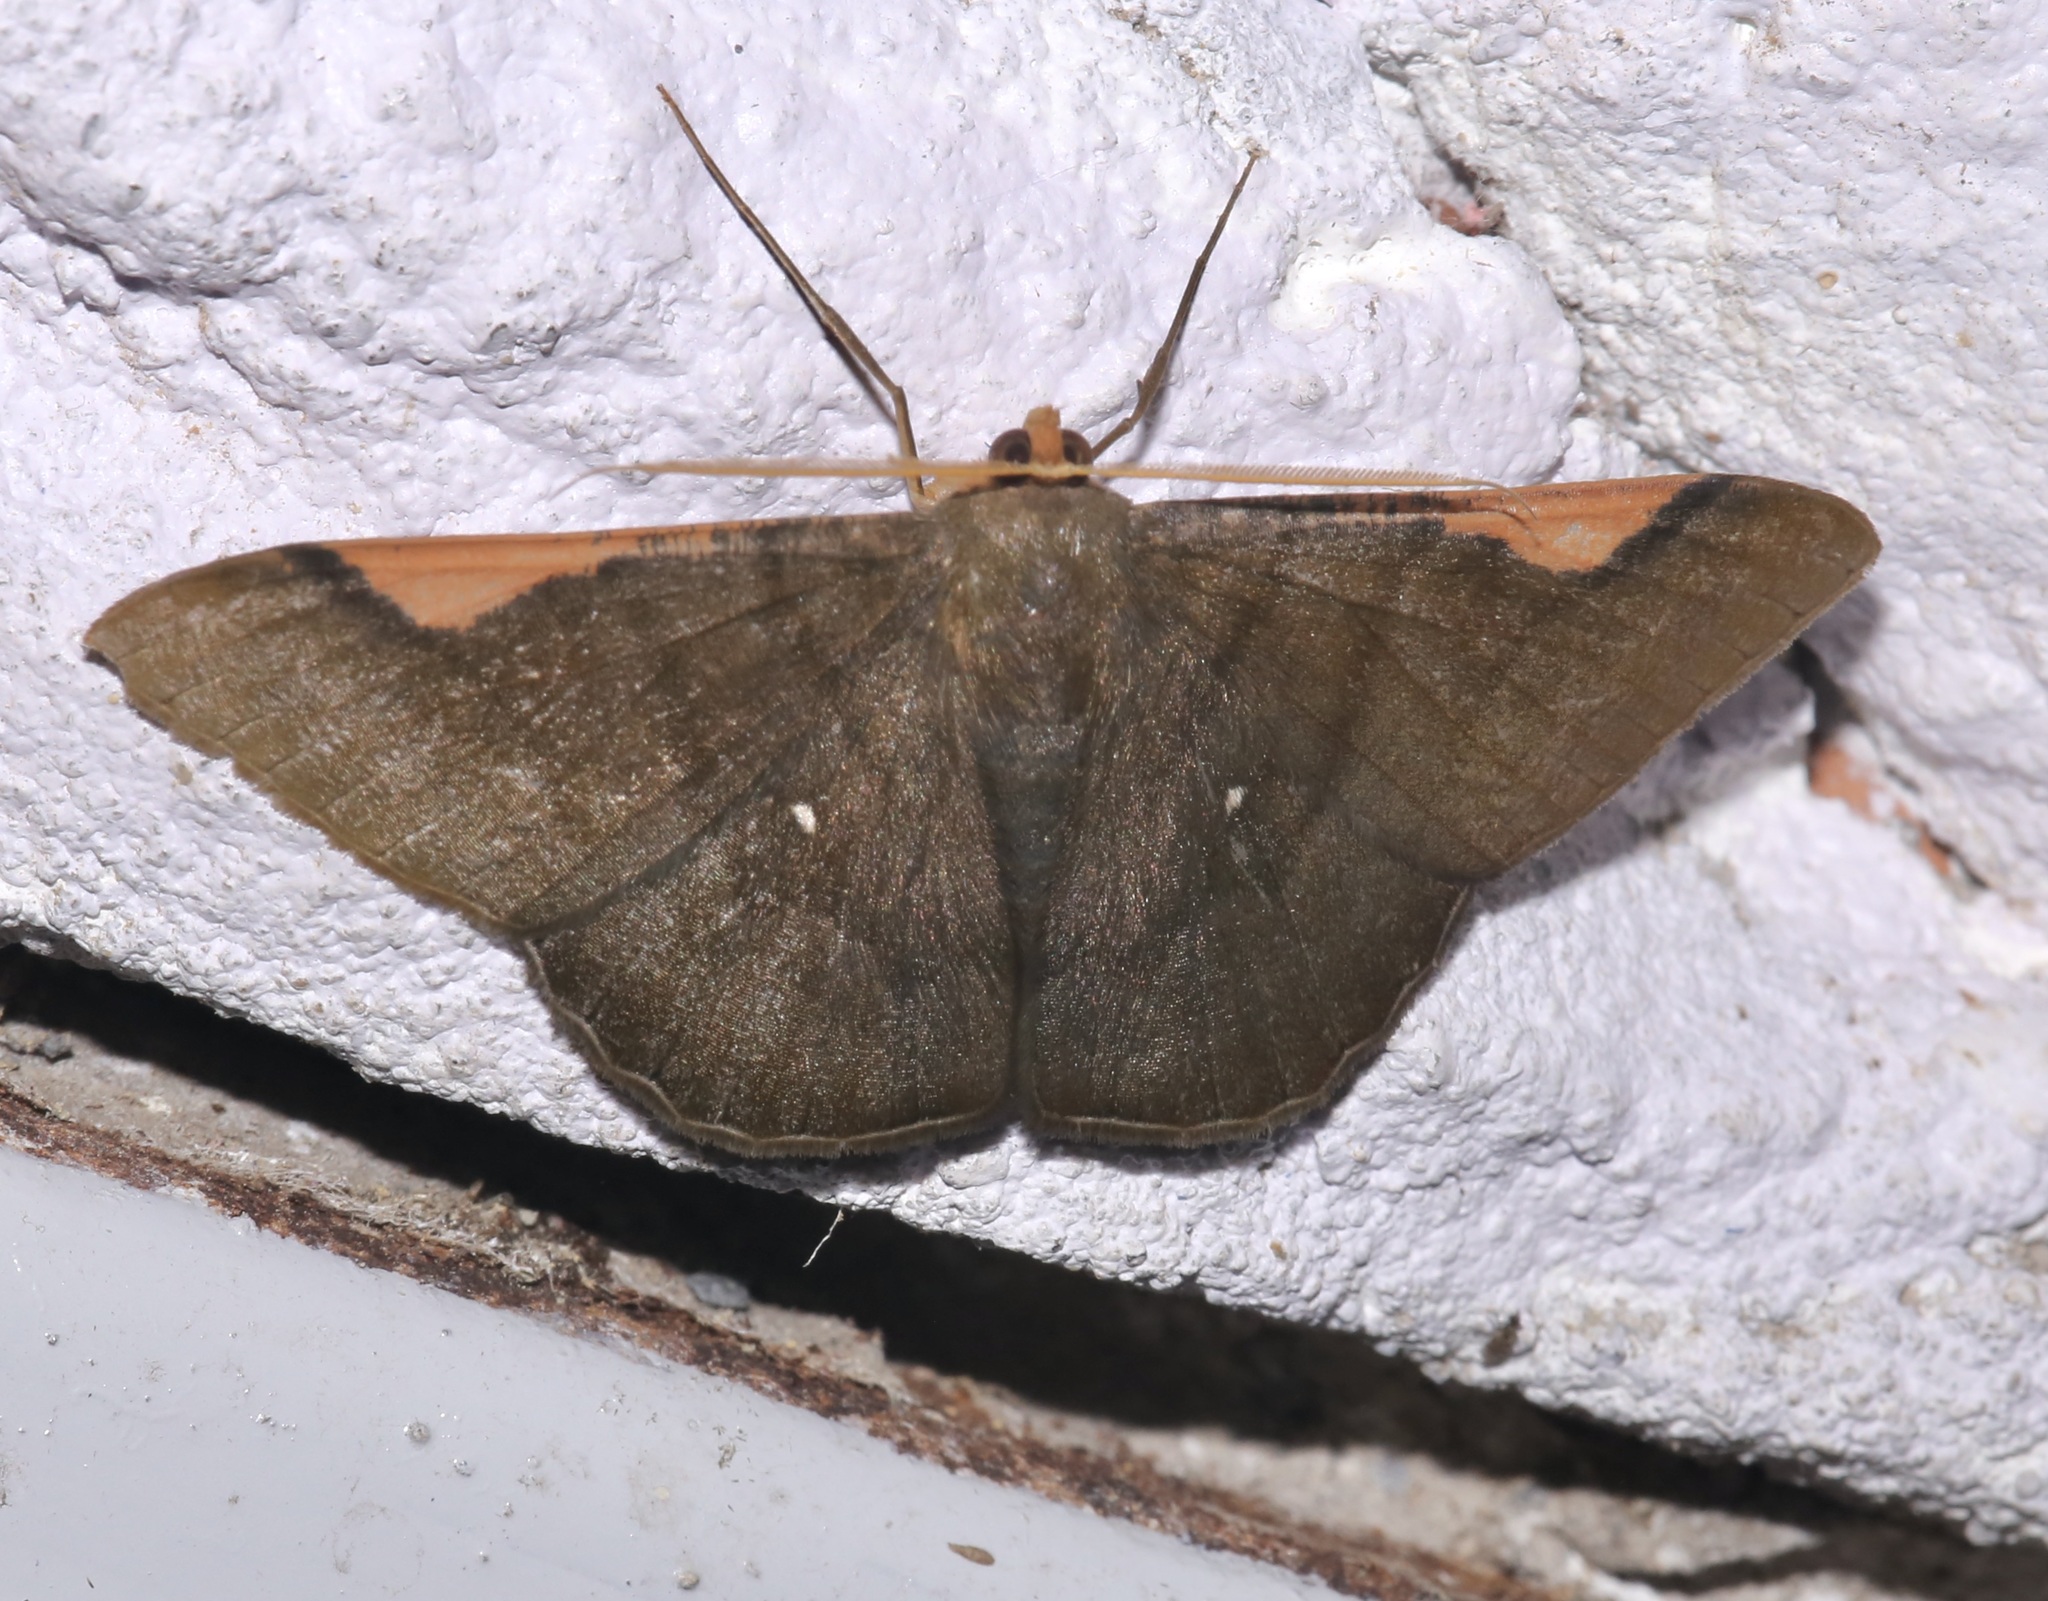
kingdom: Animalia
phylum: Arthropoda
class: Insecta
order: Lepidoptera
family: Geometridae
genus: Sphacelodes
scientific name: Sphacelodes vulneraria
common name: Looper moth
